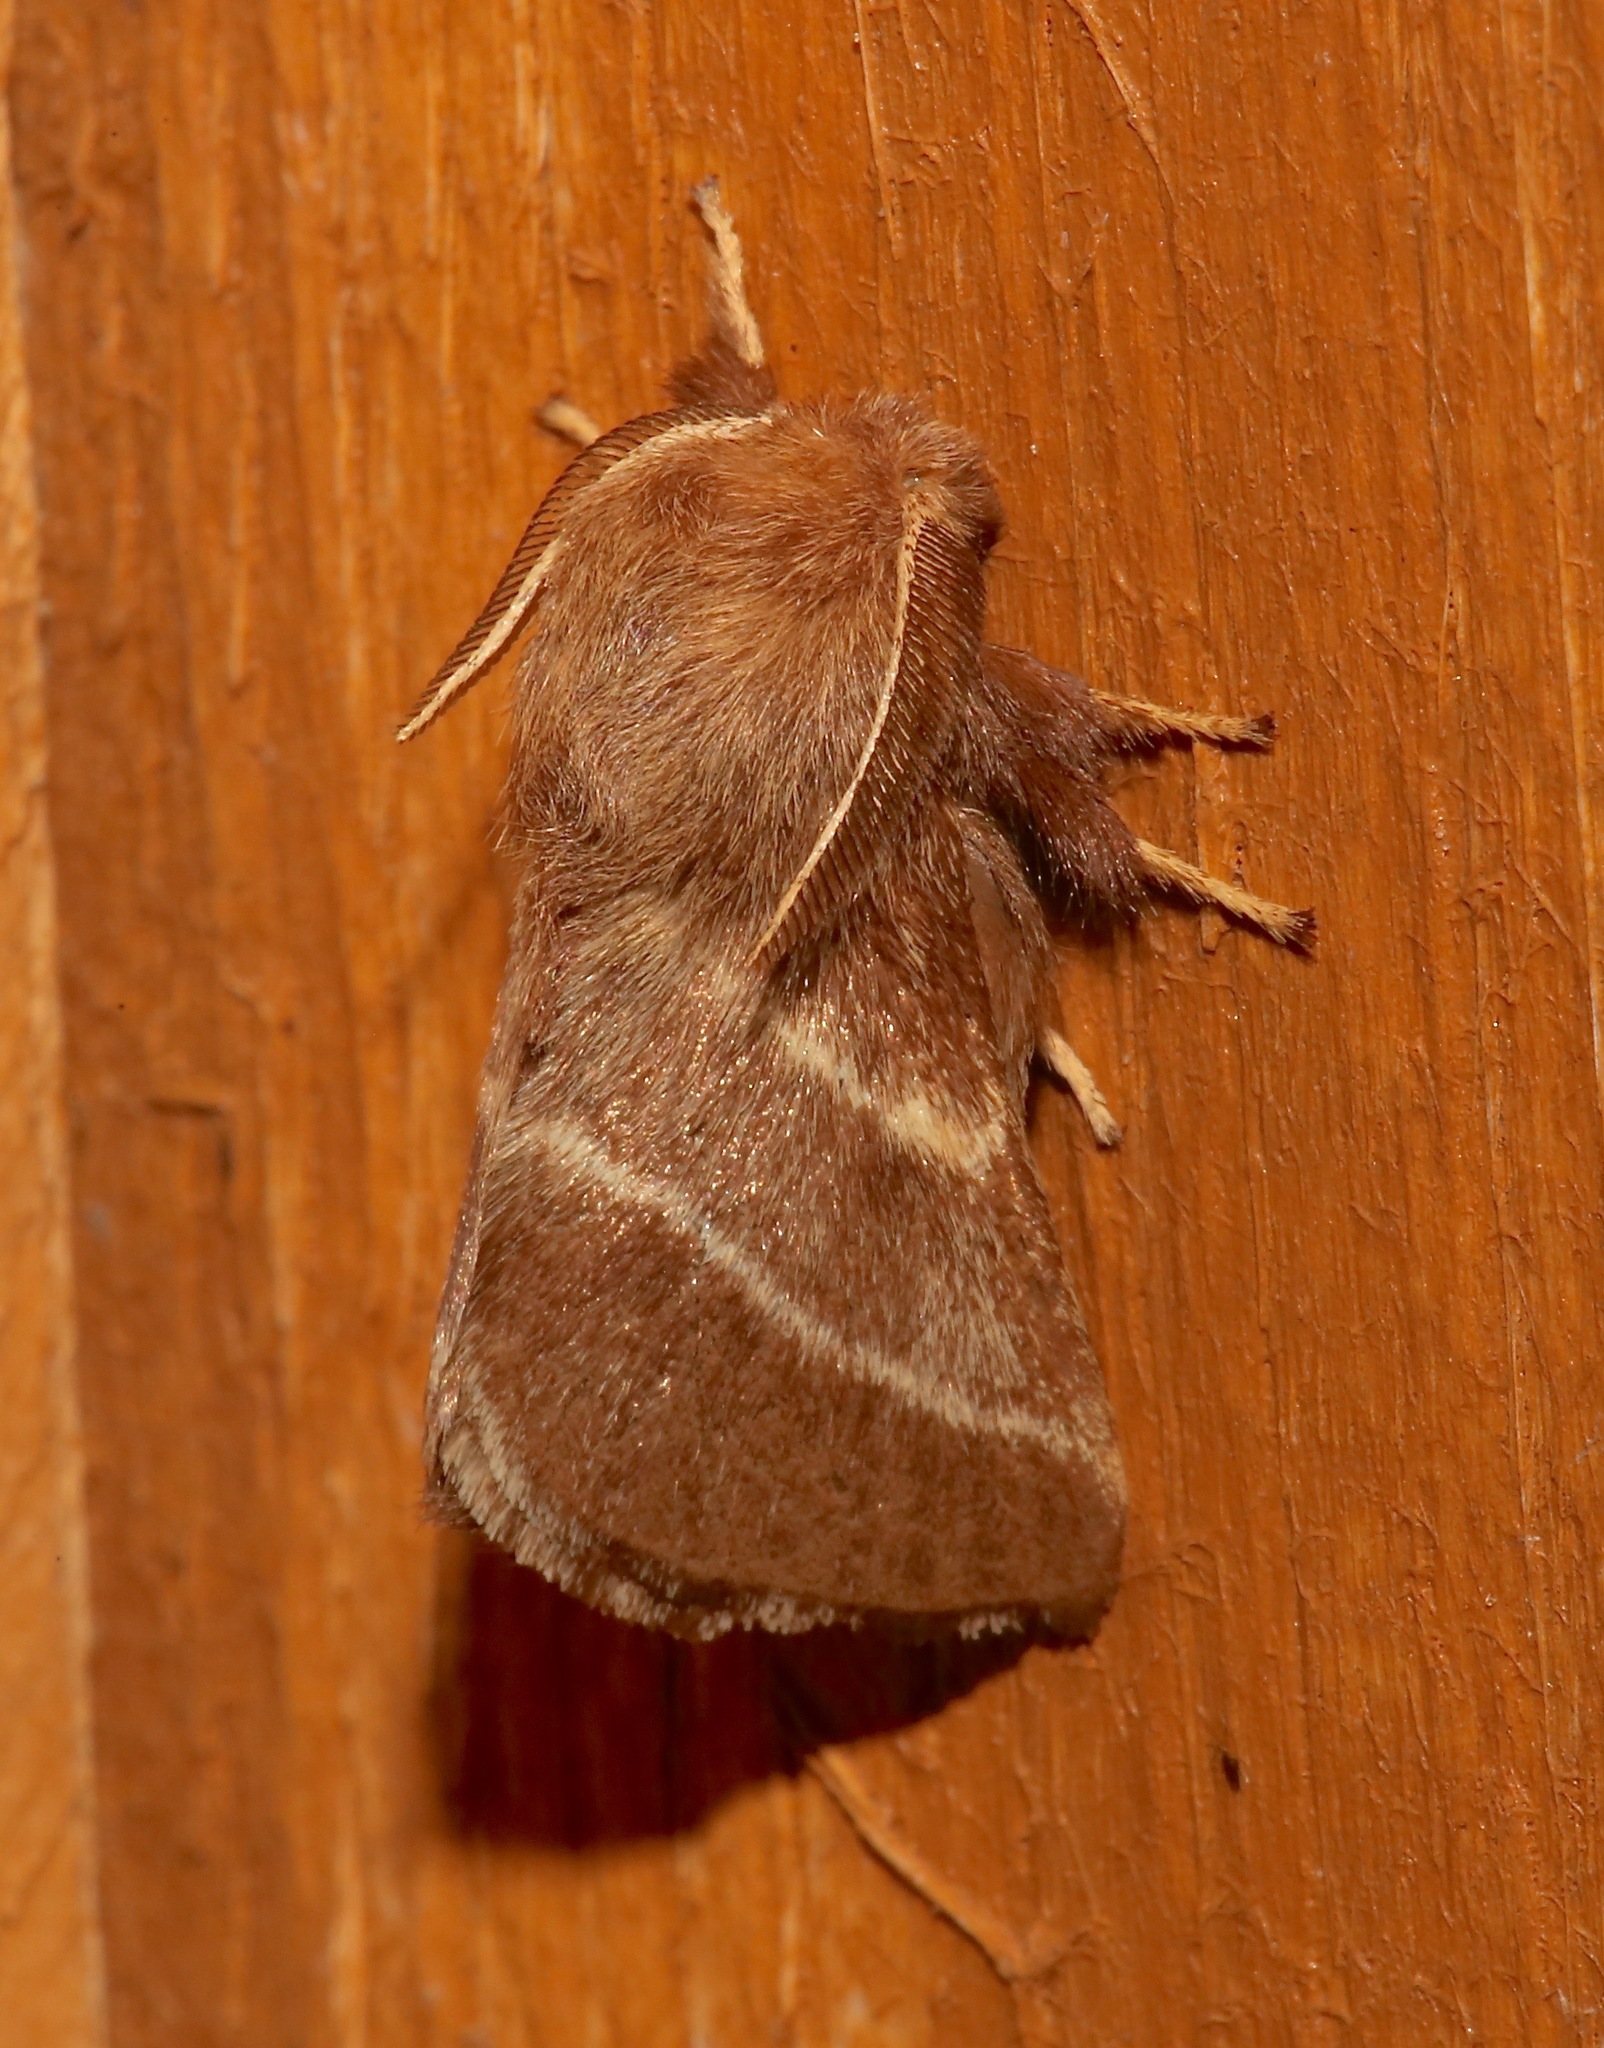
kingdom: Animalia
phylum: Arthropoda
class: Insecta
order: Lepidoptera
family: Lasiocampidae
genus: Malacosoma
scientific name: Malacosoma americana
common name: Eastern tent caterpillar moth
